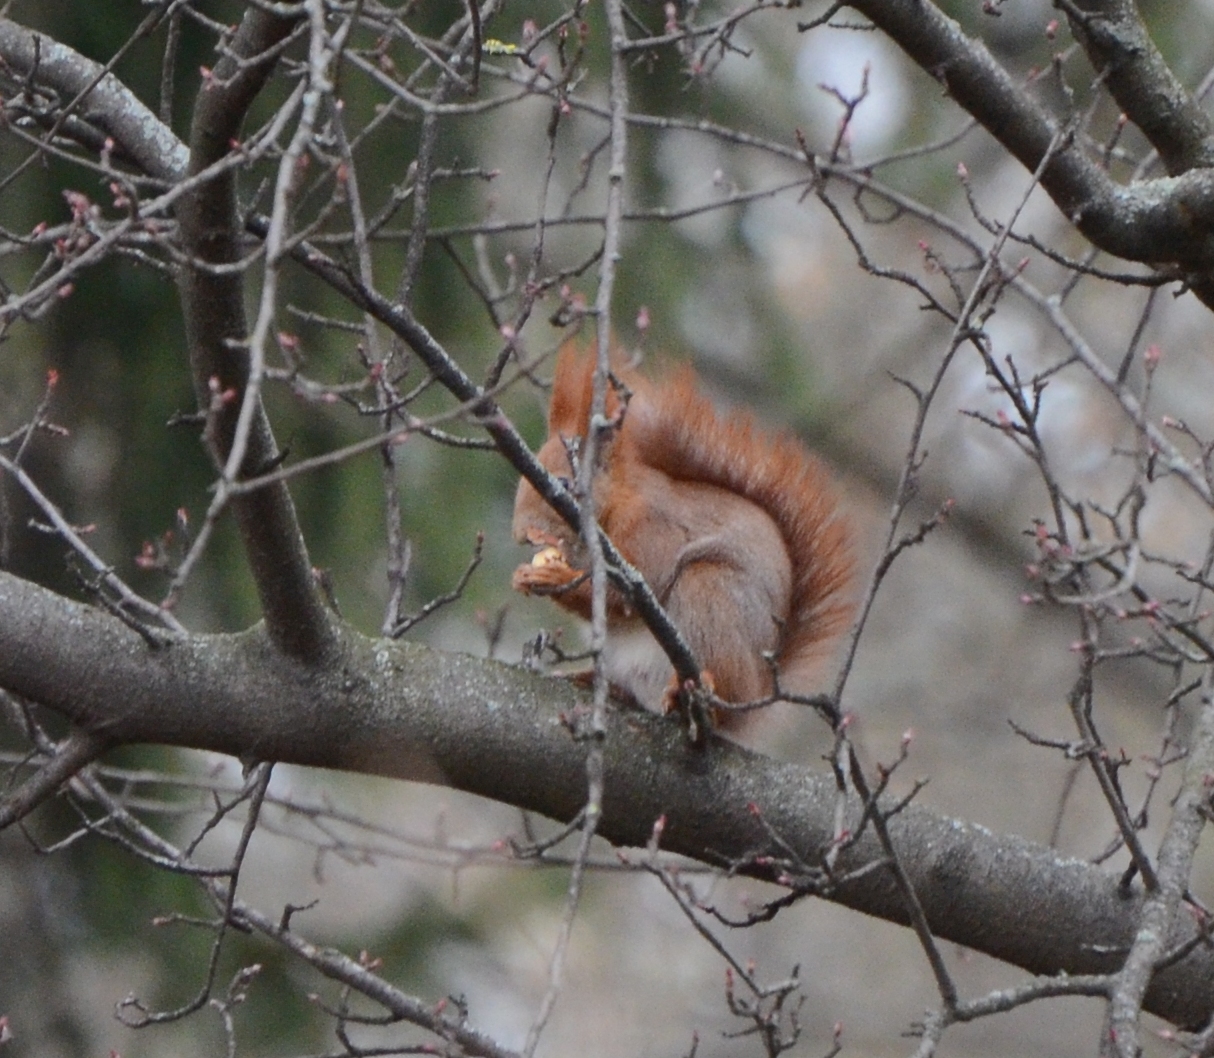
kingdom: Animalia
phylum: Chordata
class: Mammalia
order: Rodentia
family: Sciuridae
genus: Sciurus
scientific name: Sciurus vulgaris
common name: Eurasian red squirrel
